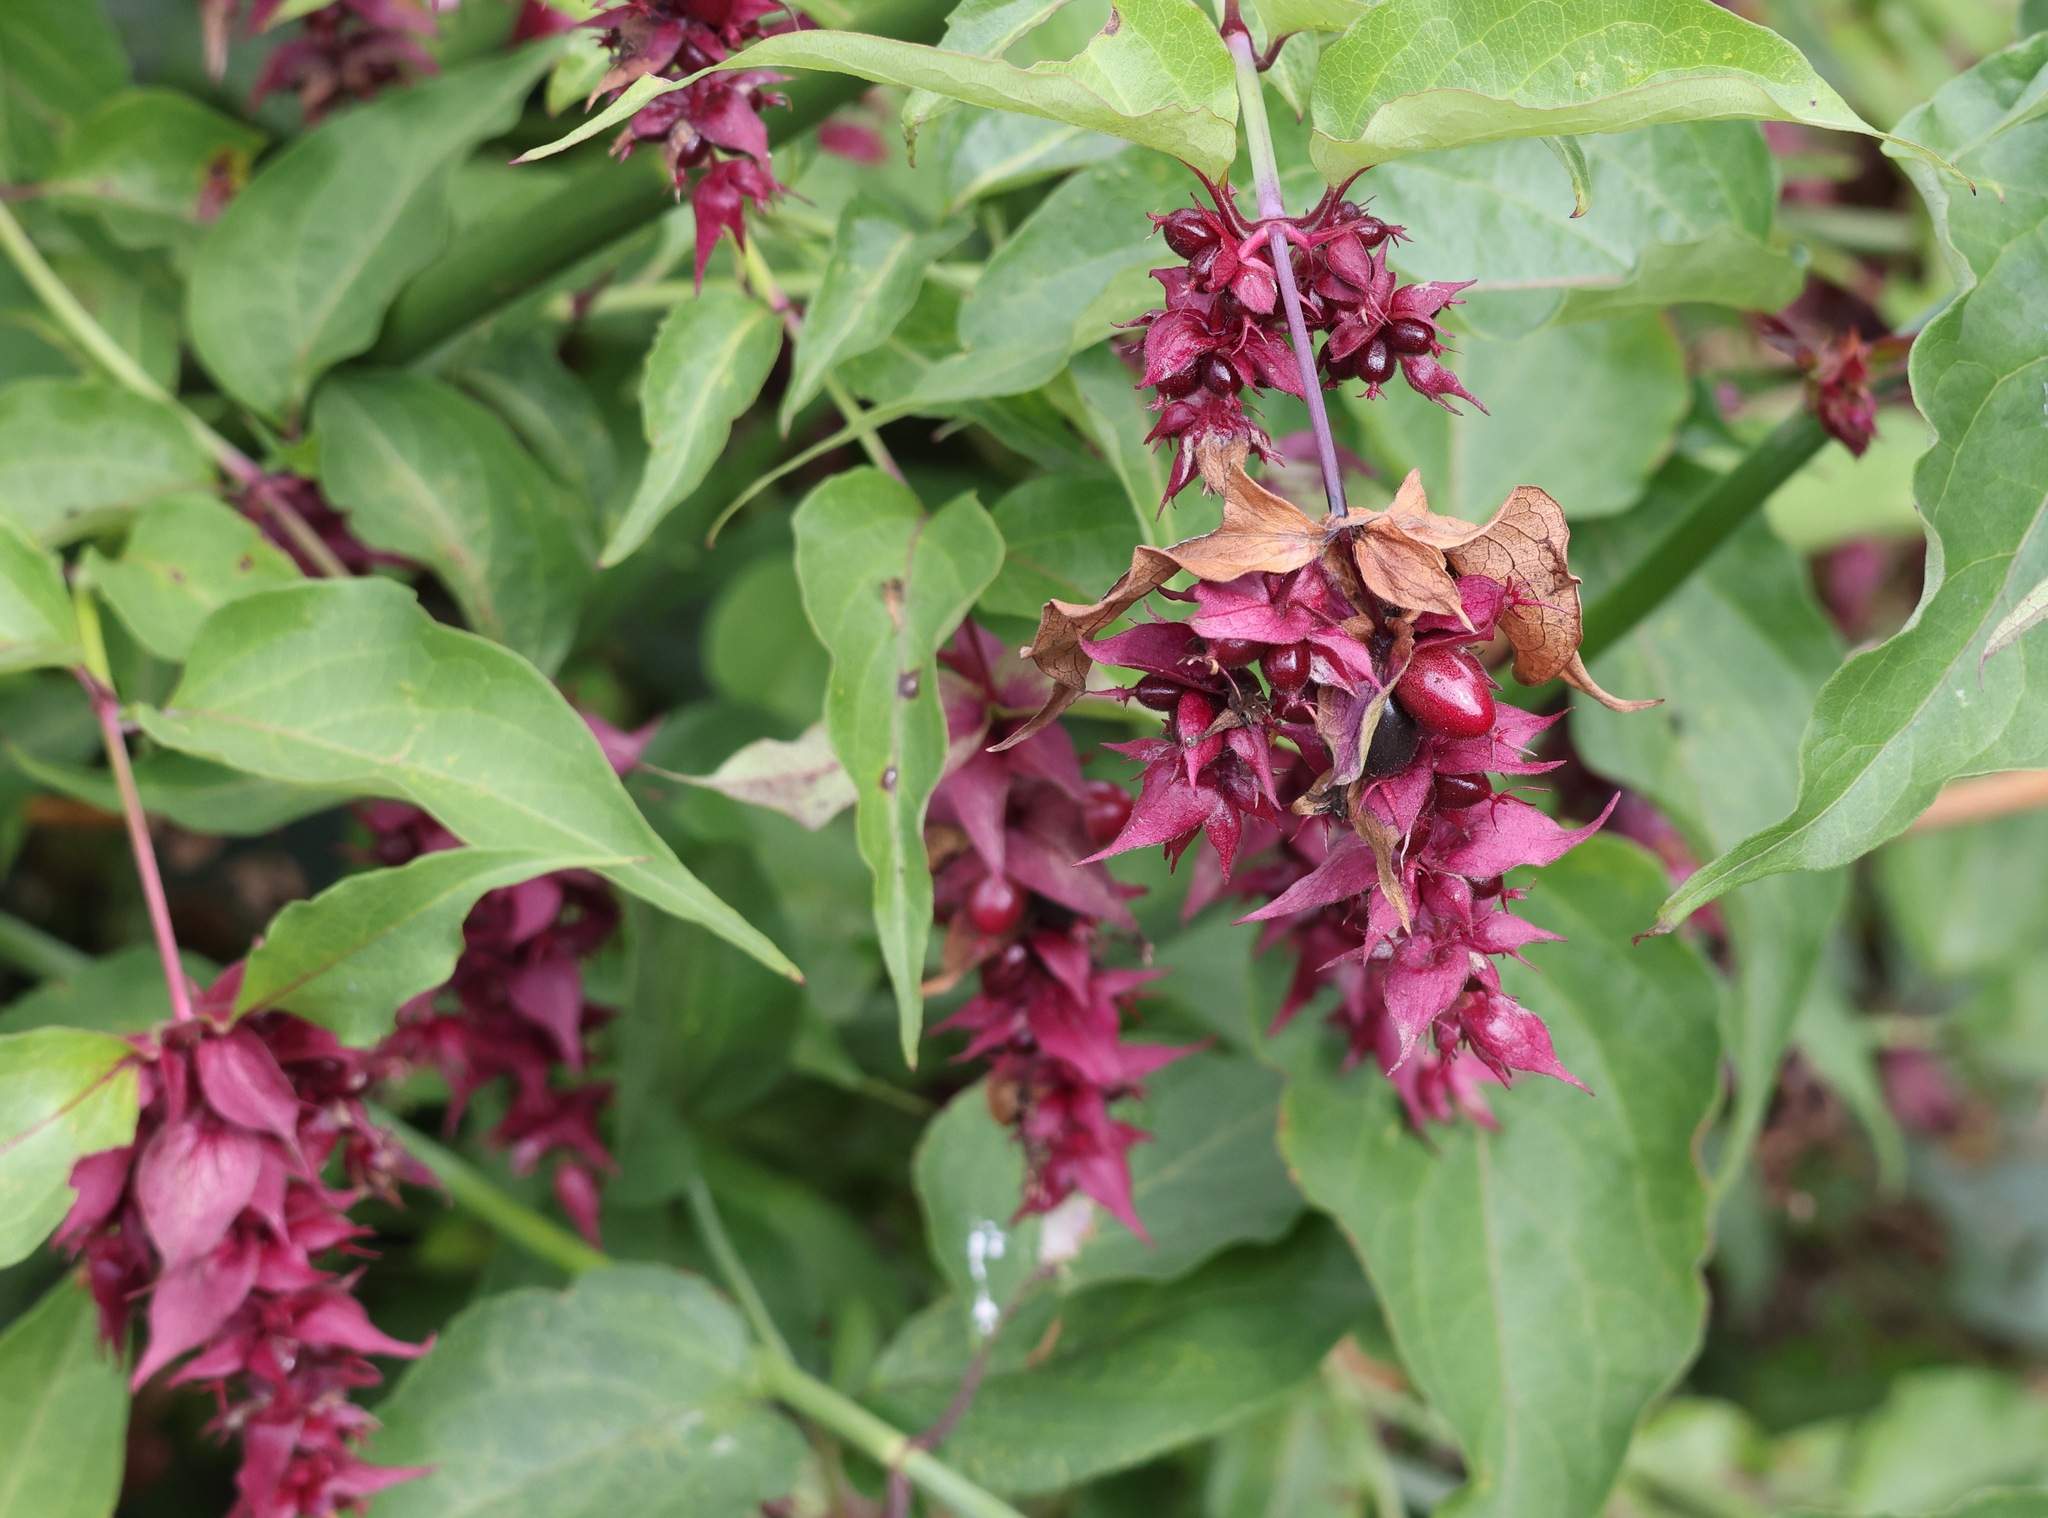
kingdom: Plantae
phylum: Tracheophyta
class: Magnoliopsida
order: Dipsacales
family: Caprifoliaceae
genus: Leycesteria
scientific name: Leycesteria formosa
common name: Himalayan honeysuckle
